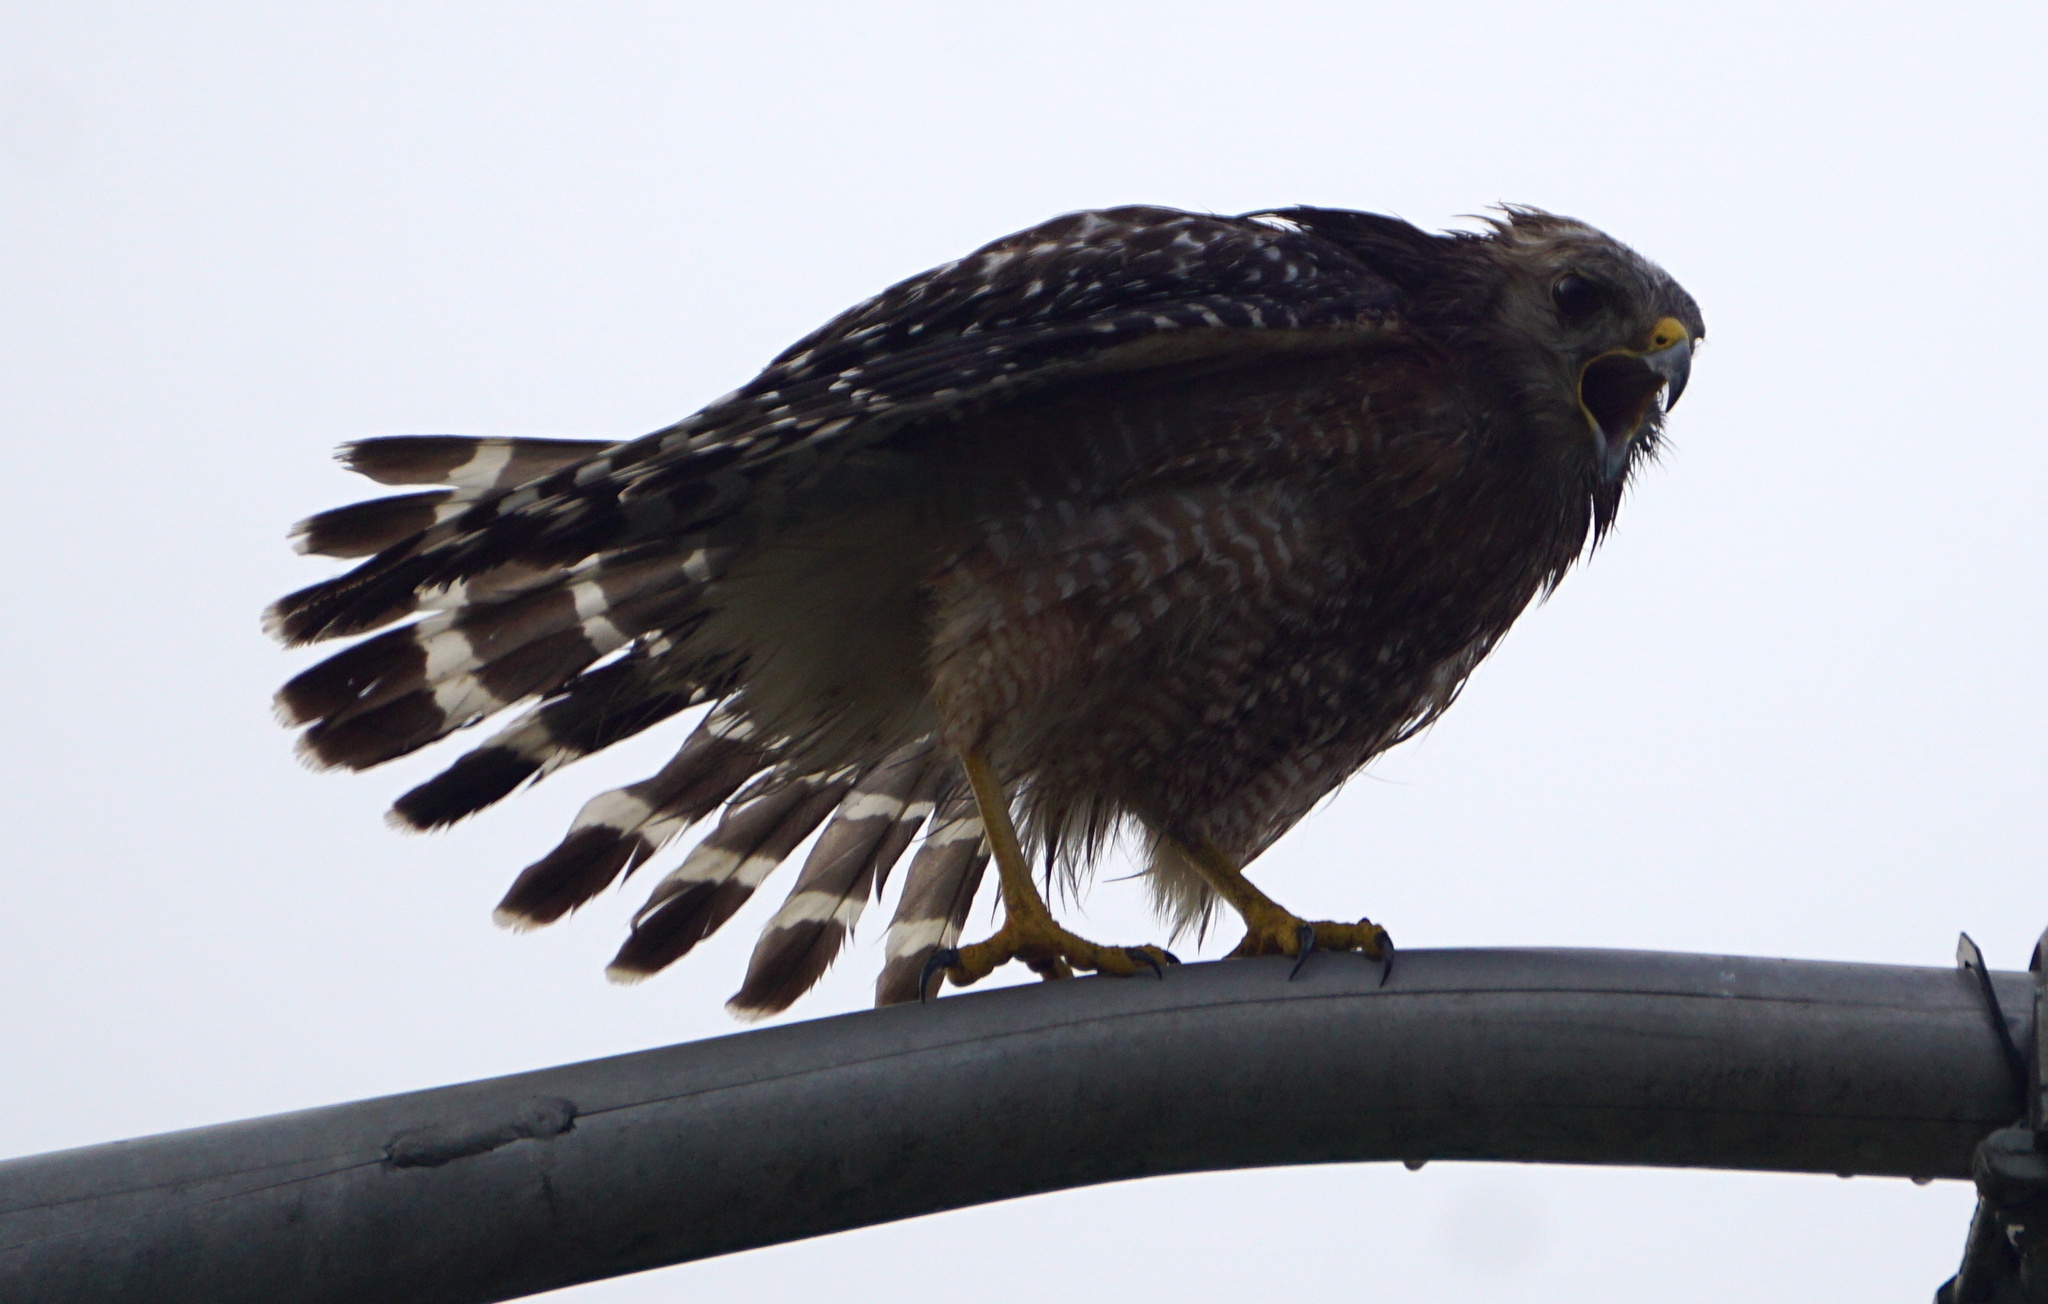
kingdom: Animalia
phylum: Chordata
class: Aves
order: Accipitriformes
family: Accipitridae
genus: Buteo
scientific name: Buteo lineatus
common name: Red-shouldered hawk
